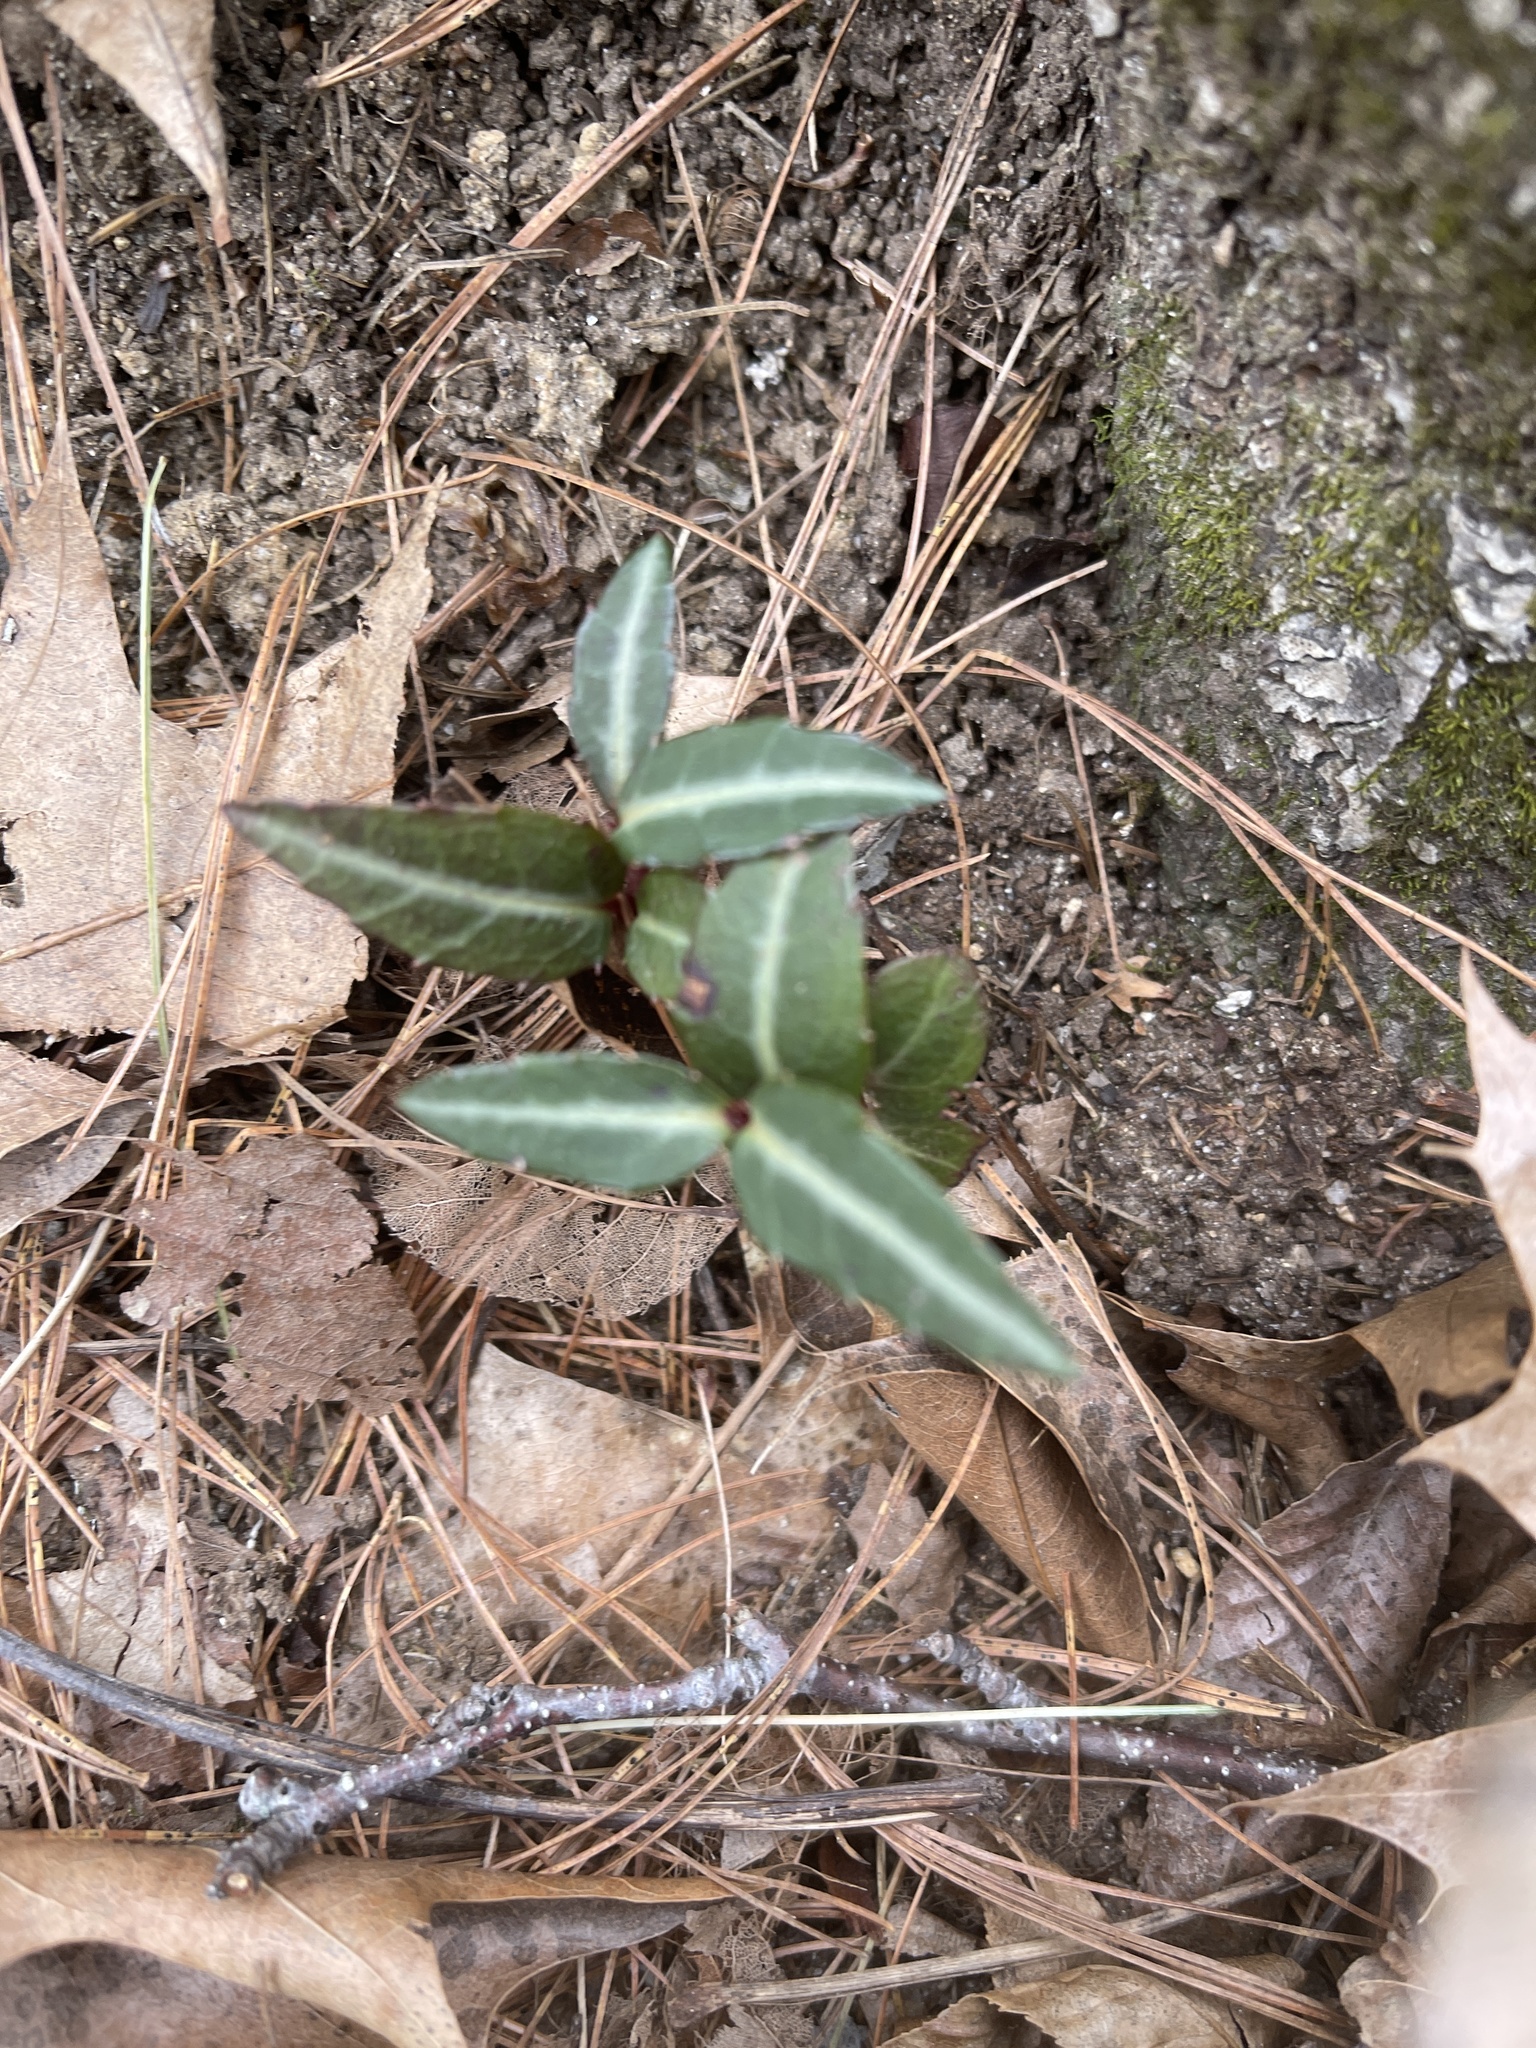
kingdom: Plantae
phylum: Tracheophyta
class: Magnoliopsida
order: Ericales
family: Ericaceae
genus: Chimaphila
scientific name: Chimaphila maculata
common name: Spotted pipsissewa
